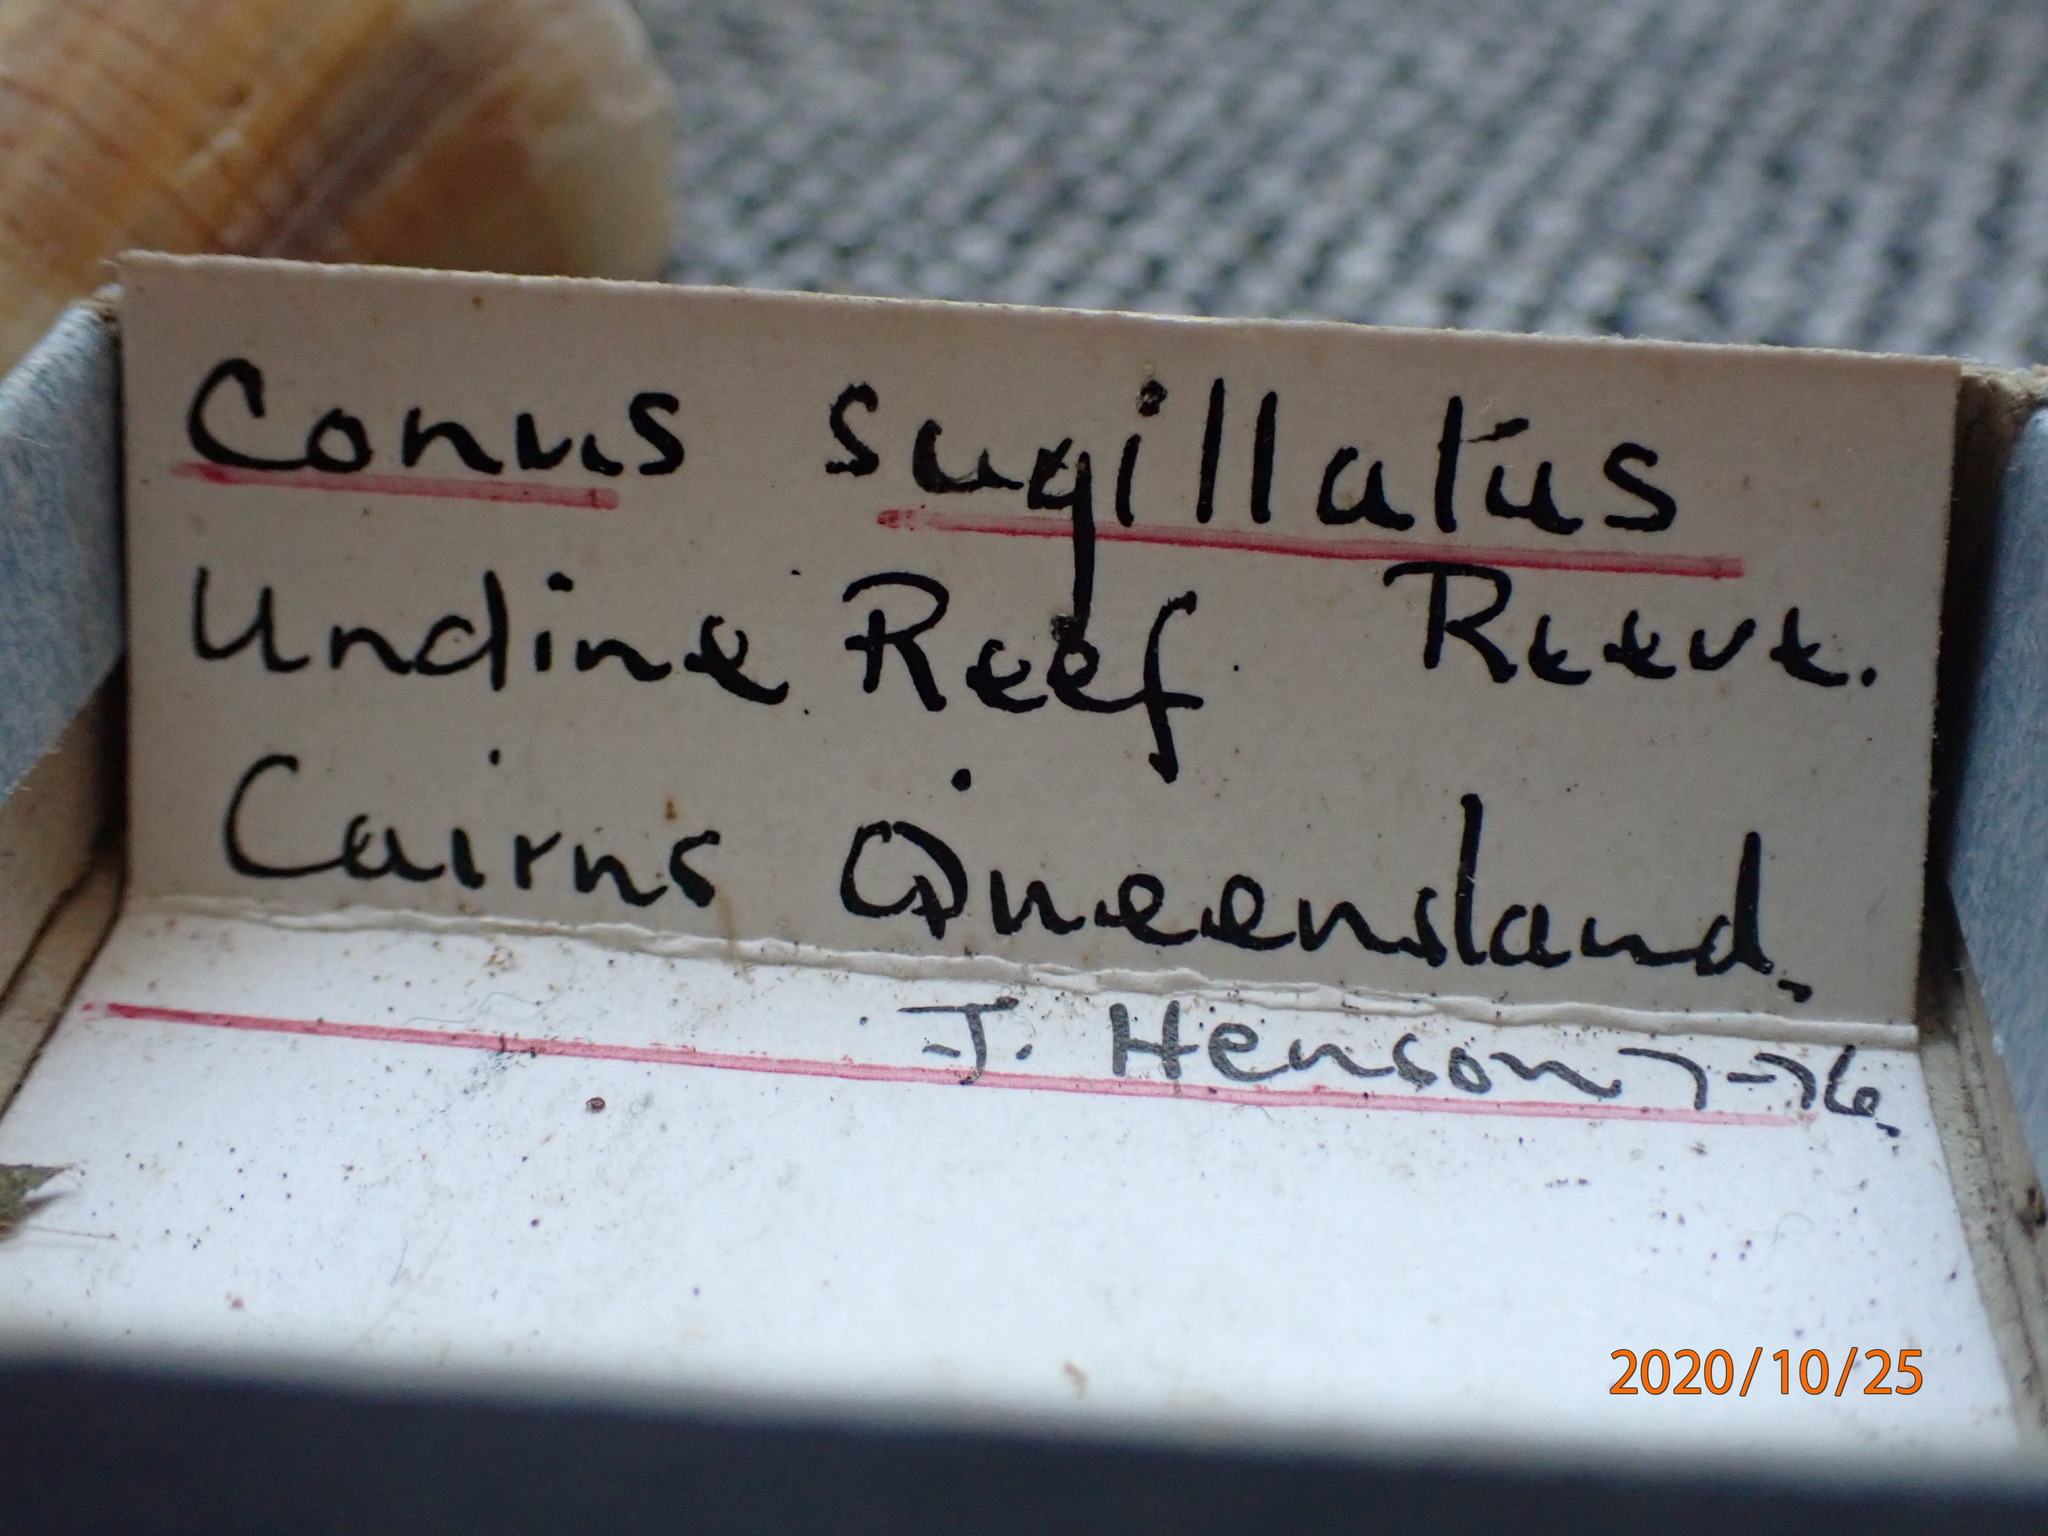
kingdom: Animalia
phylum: Mollusca
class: Gastropoda
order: Neogastropoda
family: Conidae
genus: Conus
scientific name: Conus sugillatus
